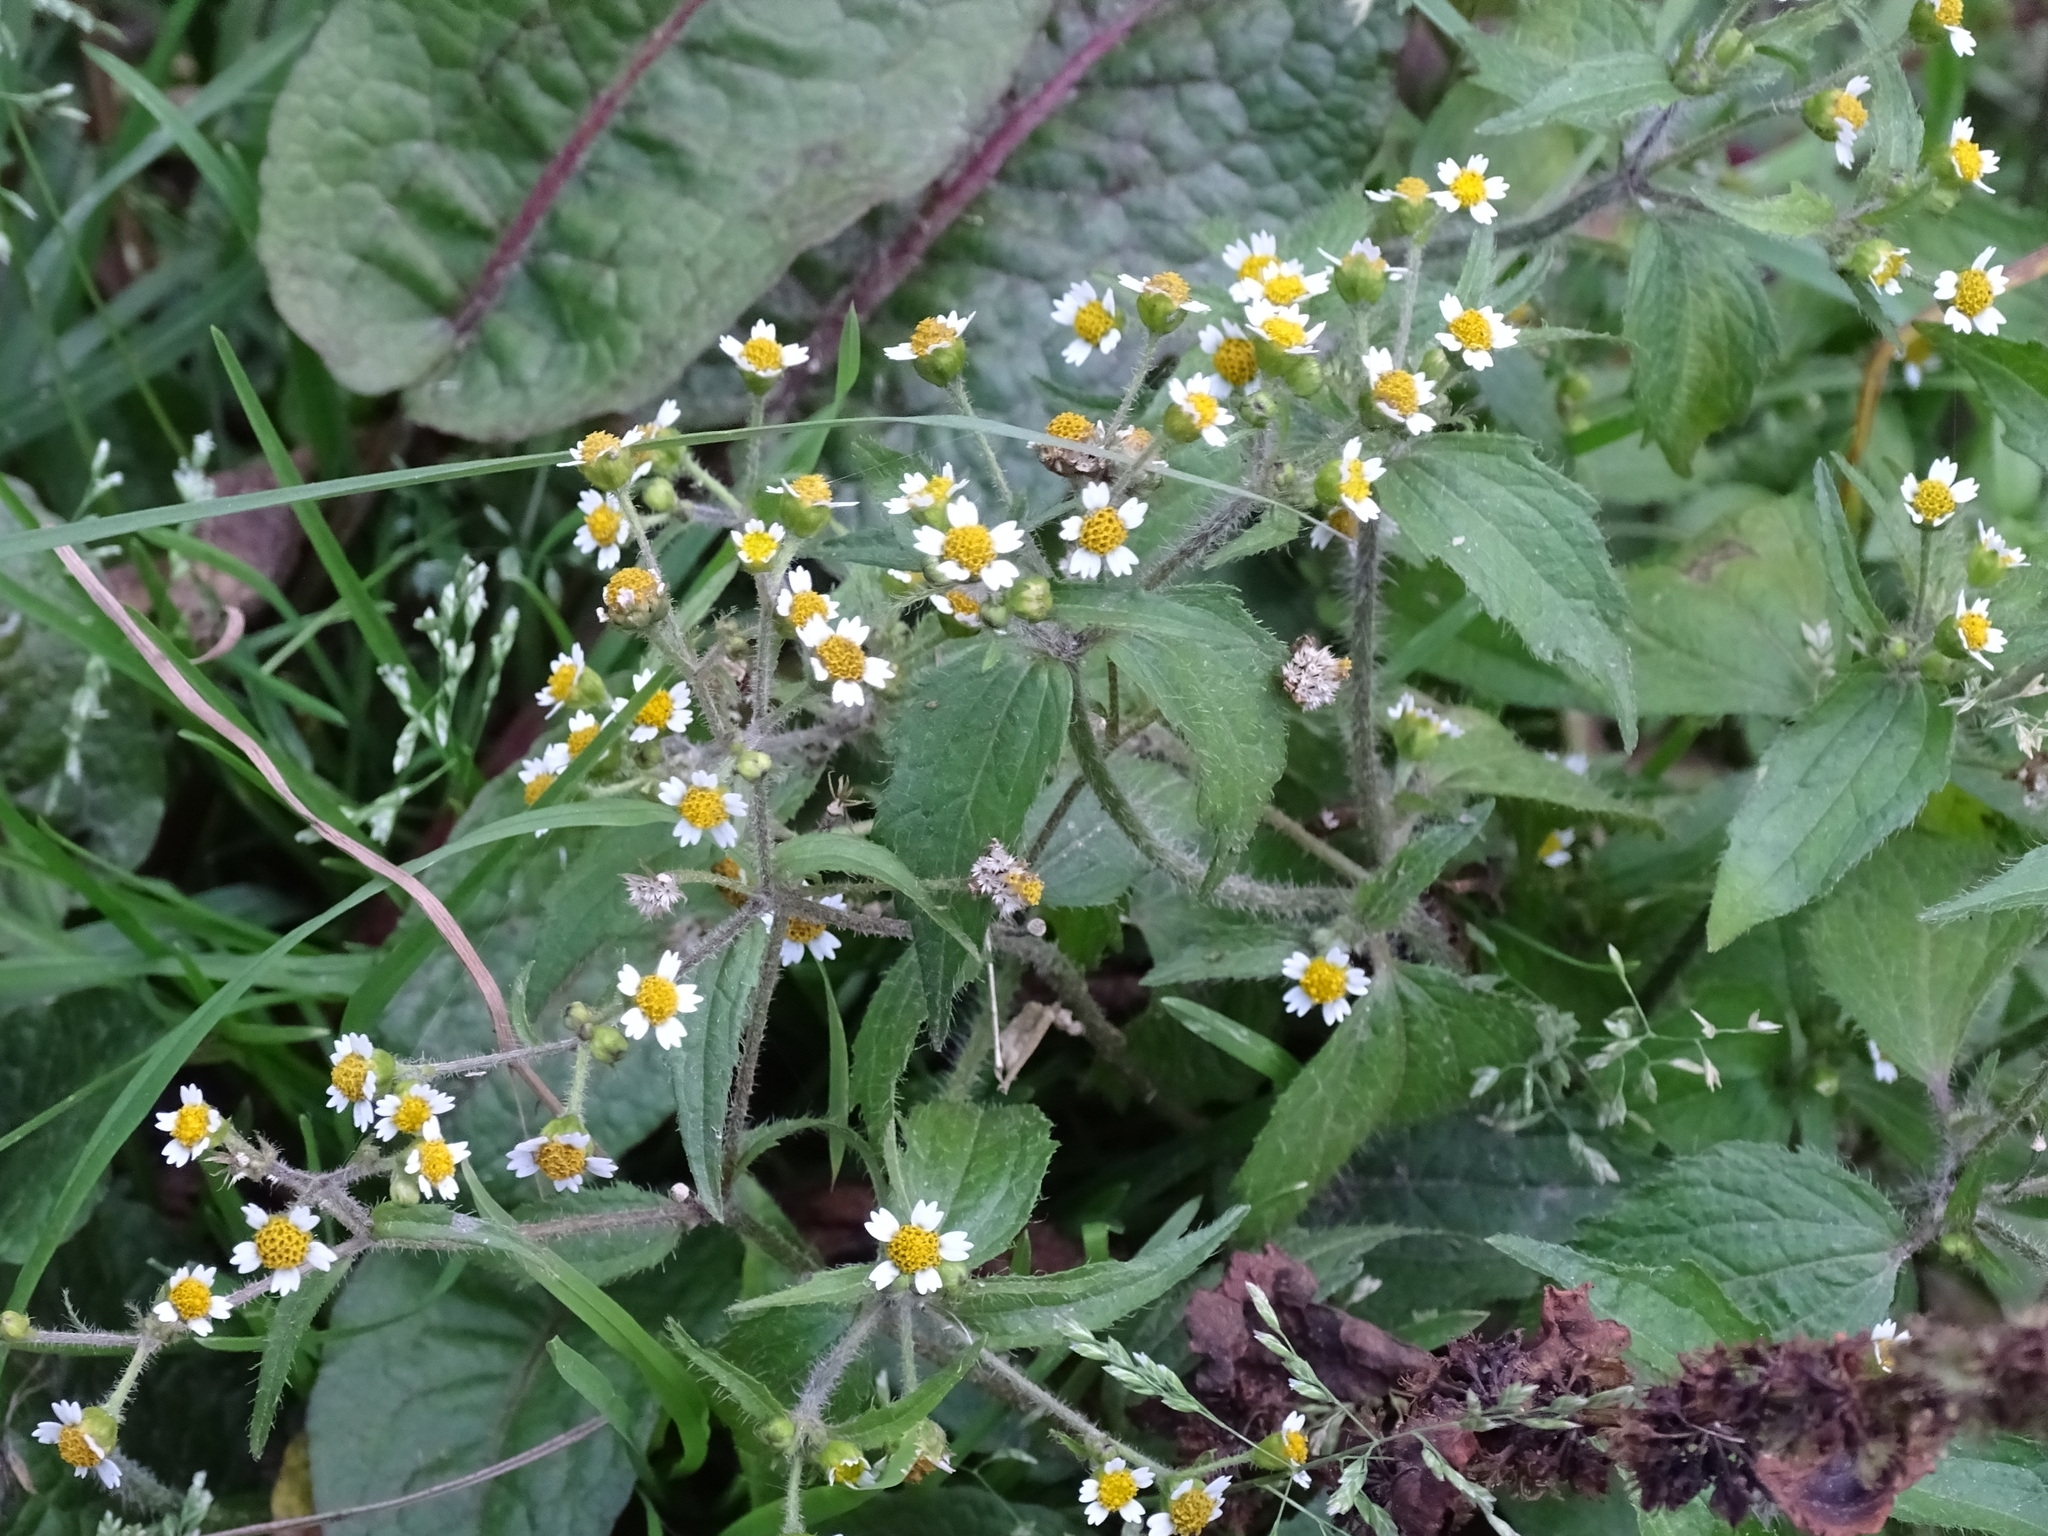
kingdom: Plantae
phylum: Tracheophyta
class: Magnoliopsida
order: Asterales
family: Asteraceae
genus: Galinsoga
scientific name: Galinsoga quadriradiata
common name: Shaggy soldier
